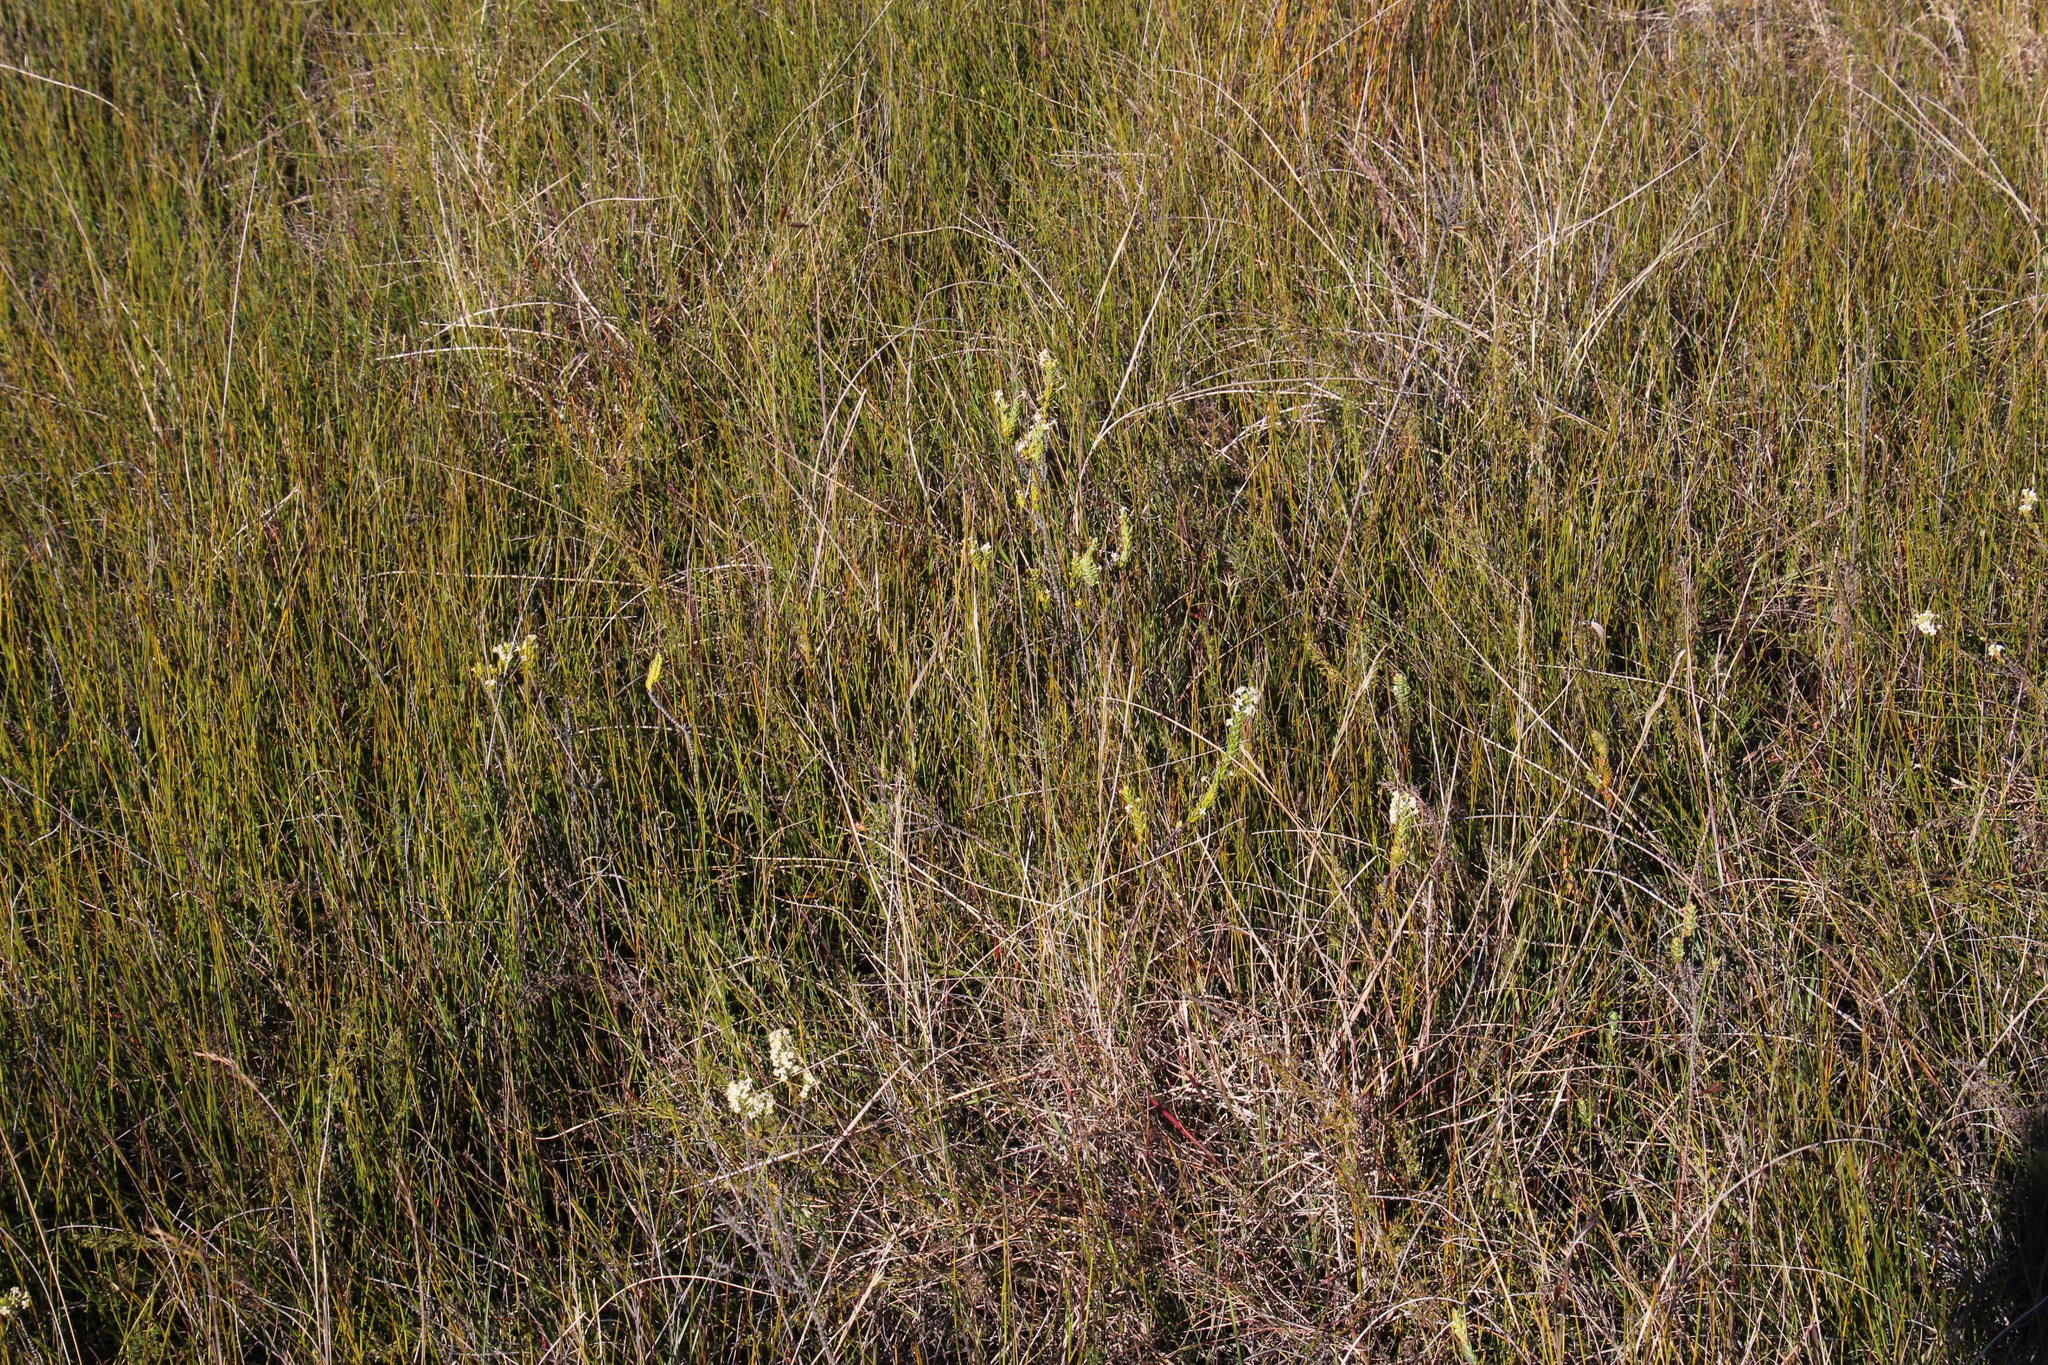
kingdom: Plantae
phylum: Tracheophyta
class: Magnoliopsida
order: Malvales
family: Thymelaeaceae
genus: Struthiola
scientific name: Struthiola tuberculosa
